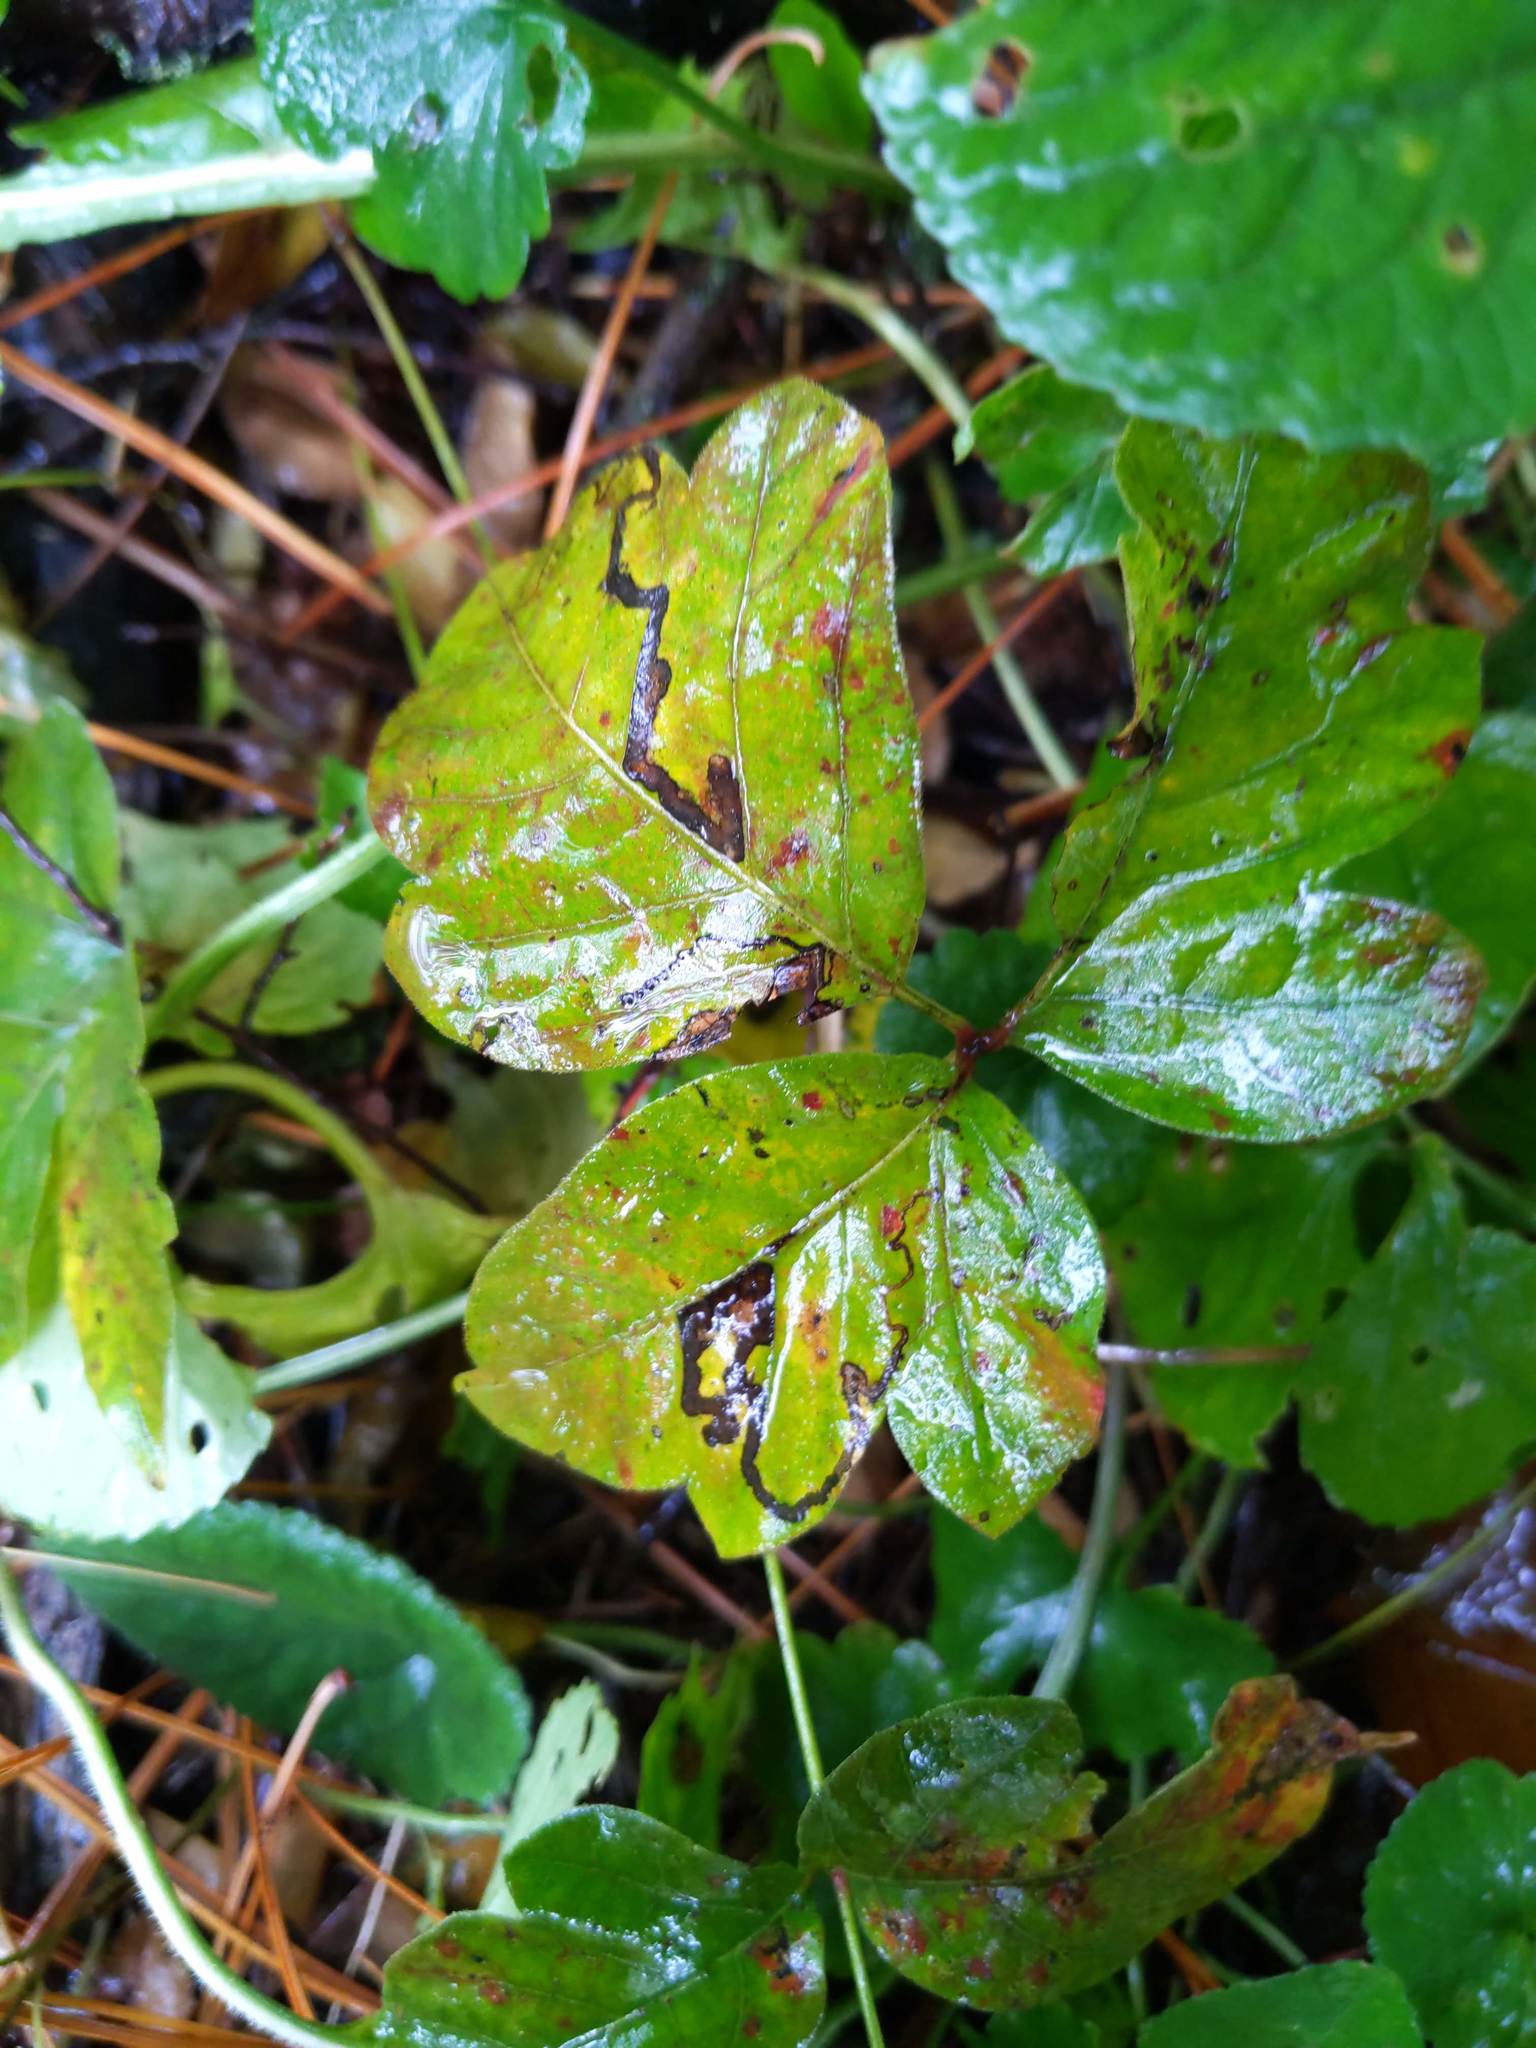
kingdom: Animalia
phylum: Arthropoda
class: Insecta
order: Lepidoptera
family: Nepticulidae
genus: Stigmella
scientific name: Stigmella rhoifoliella
